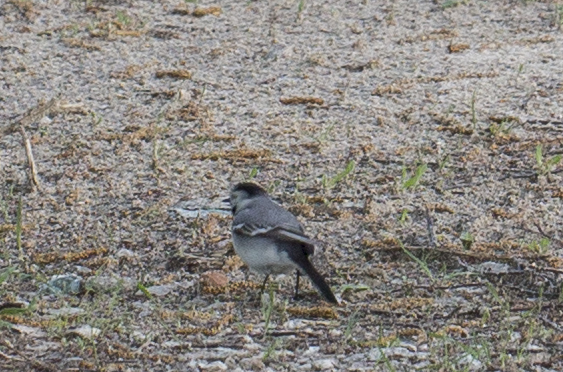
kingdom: Animalia
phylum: Chordata
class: Aves
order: Passeriformes
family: Motacillidae
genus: Motacilla
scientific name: Motacilla alba
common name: White wagtail
